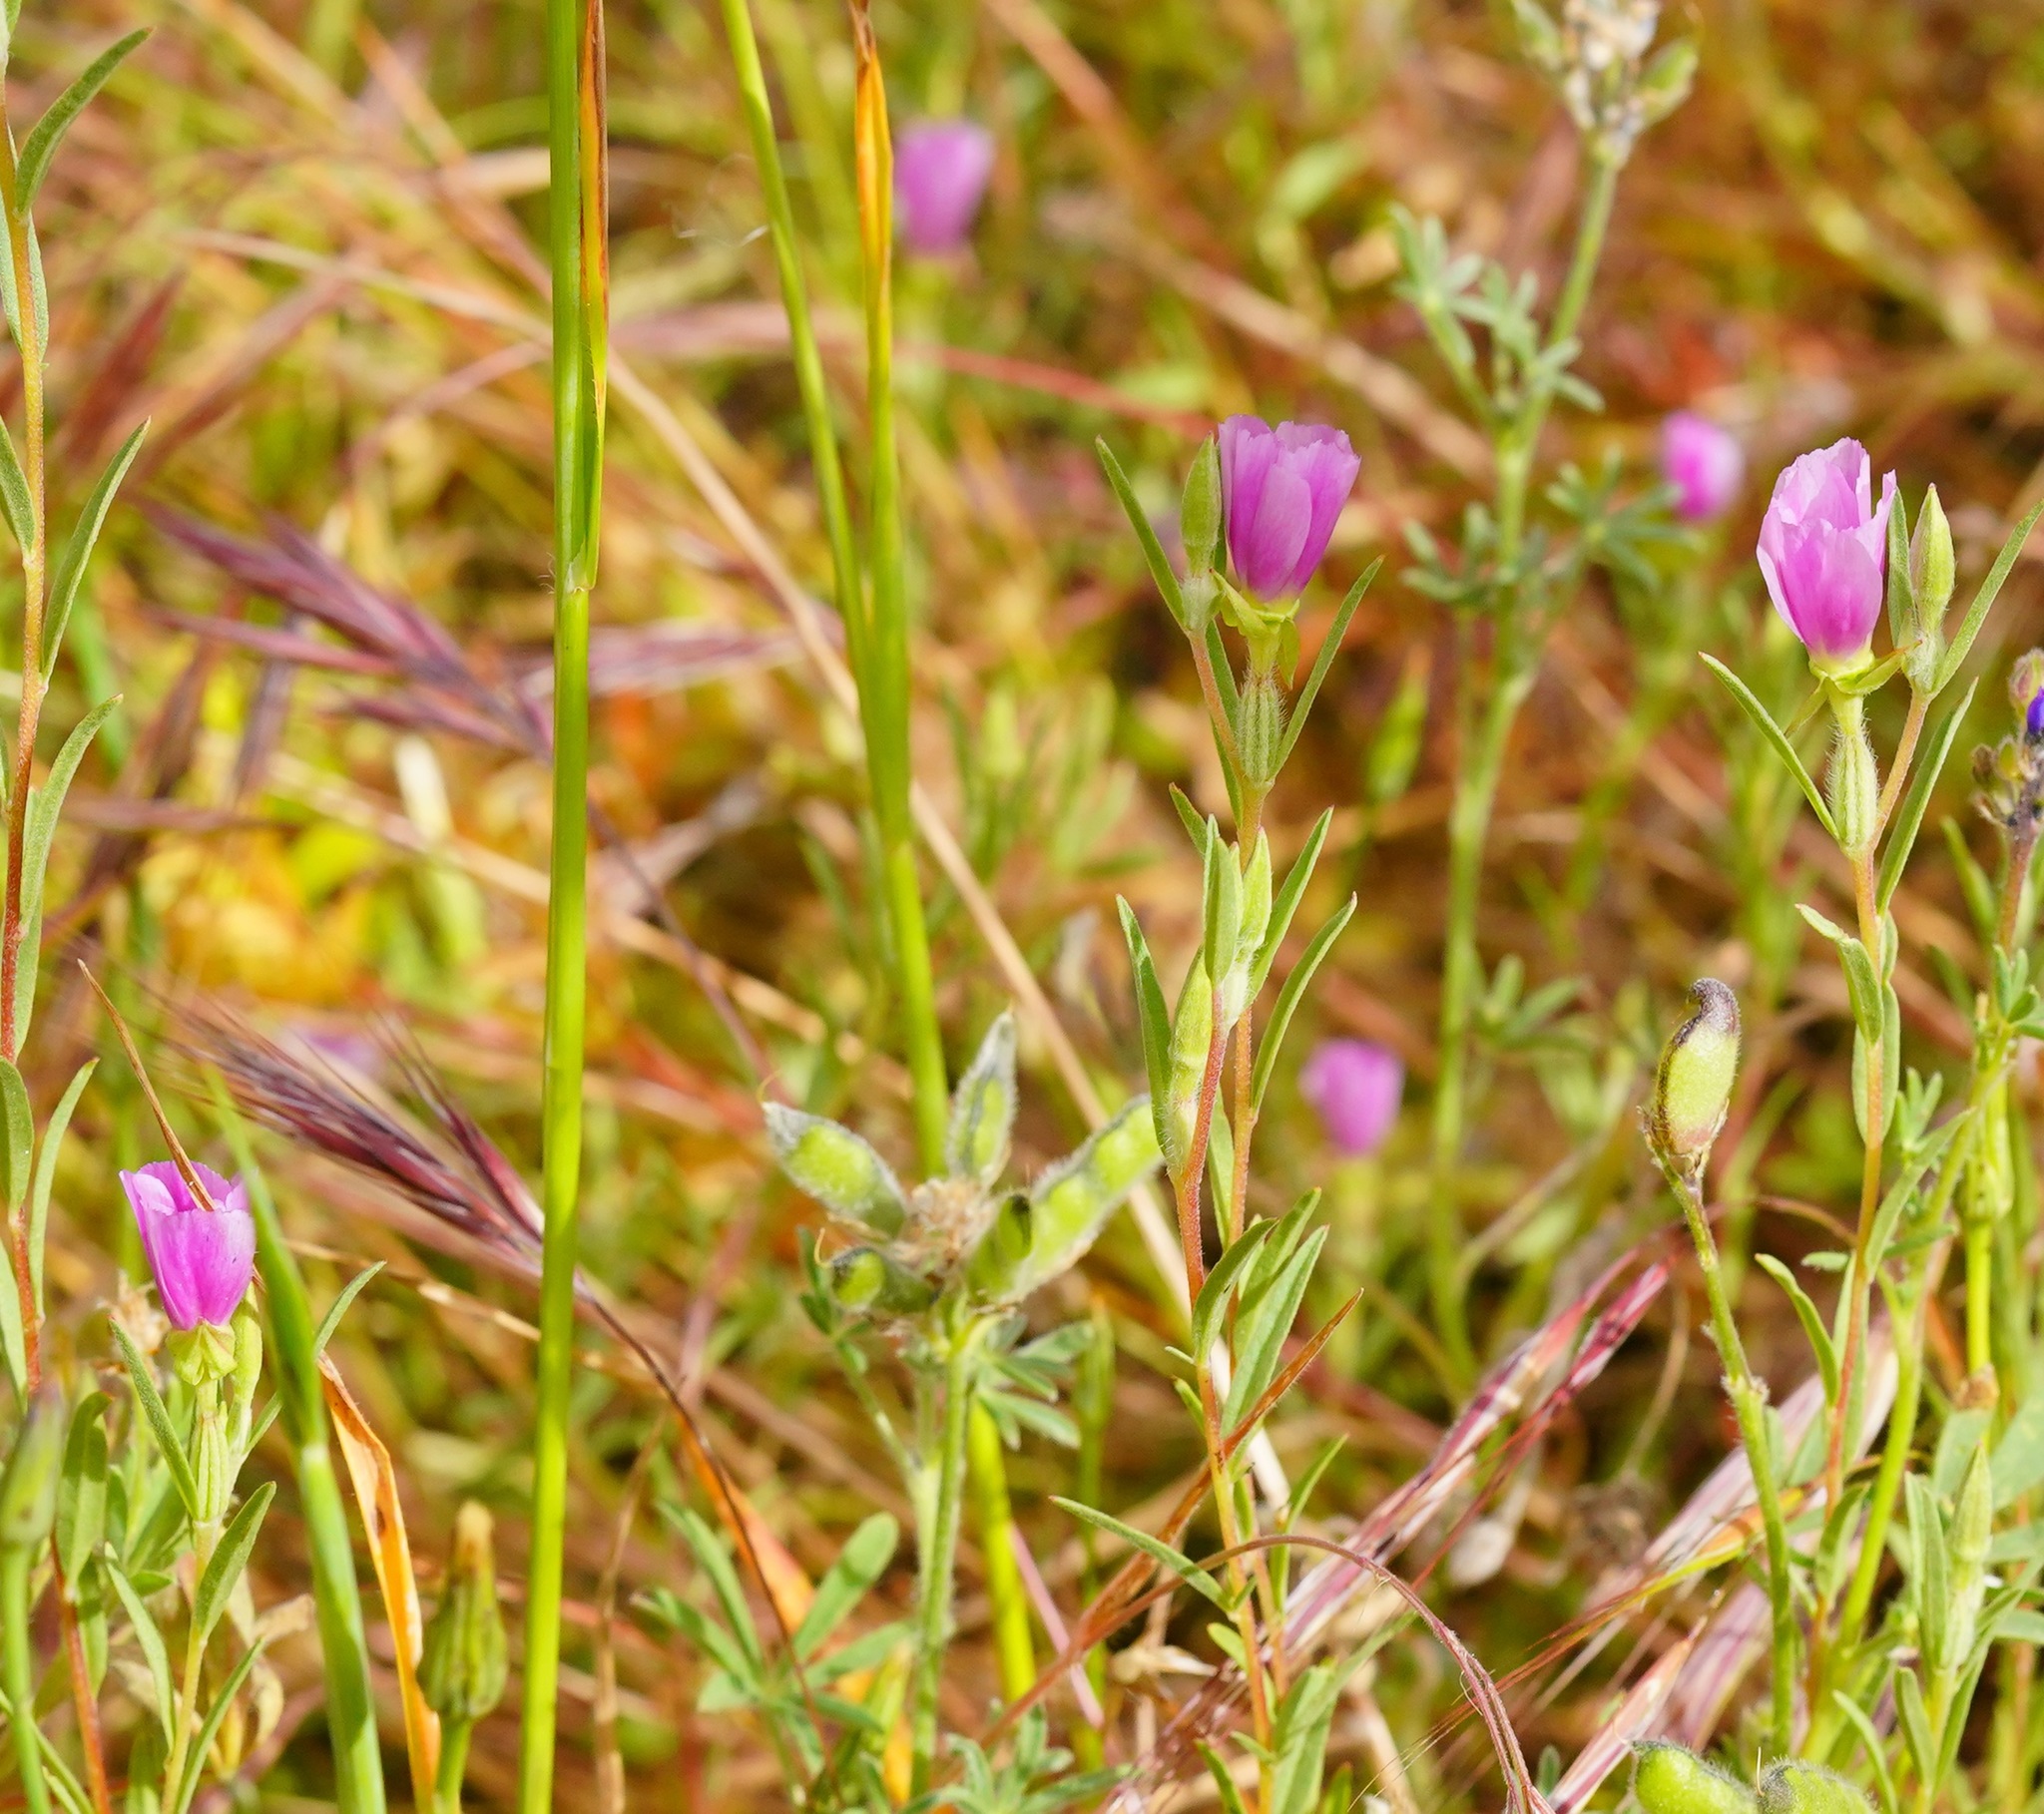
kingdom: Plantae
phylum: Tracheophyta
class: Magnoliopsida
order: Myrtales
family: Onagraceae
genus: Clarkia
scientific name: Clarkia purpurea
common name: Purple clarkia
